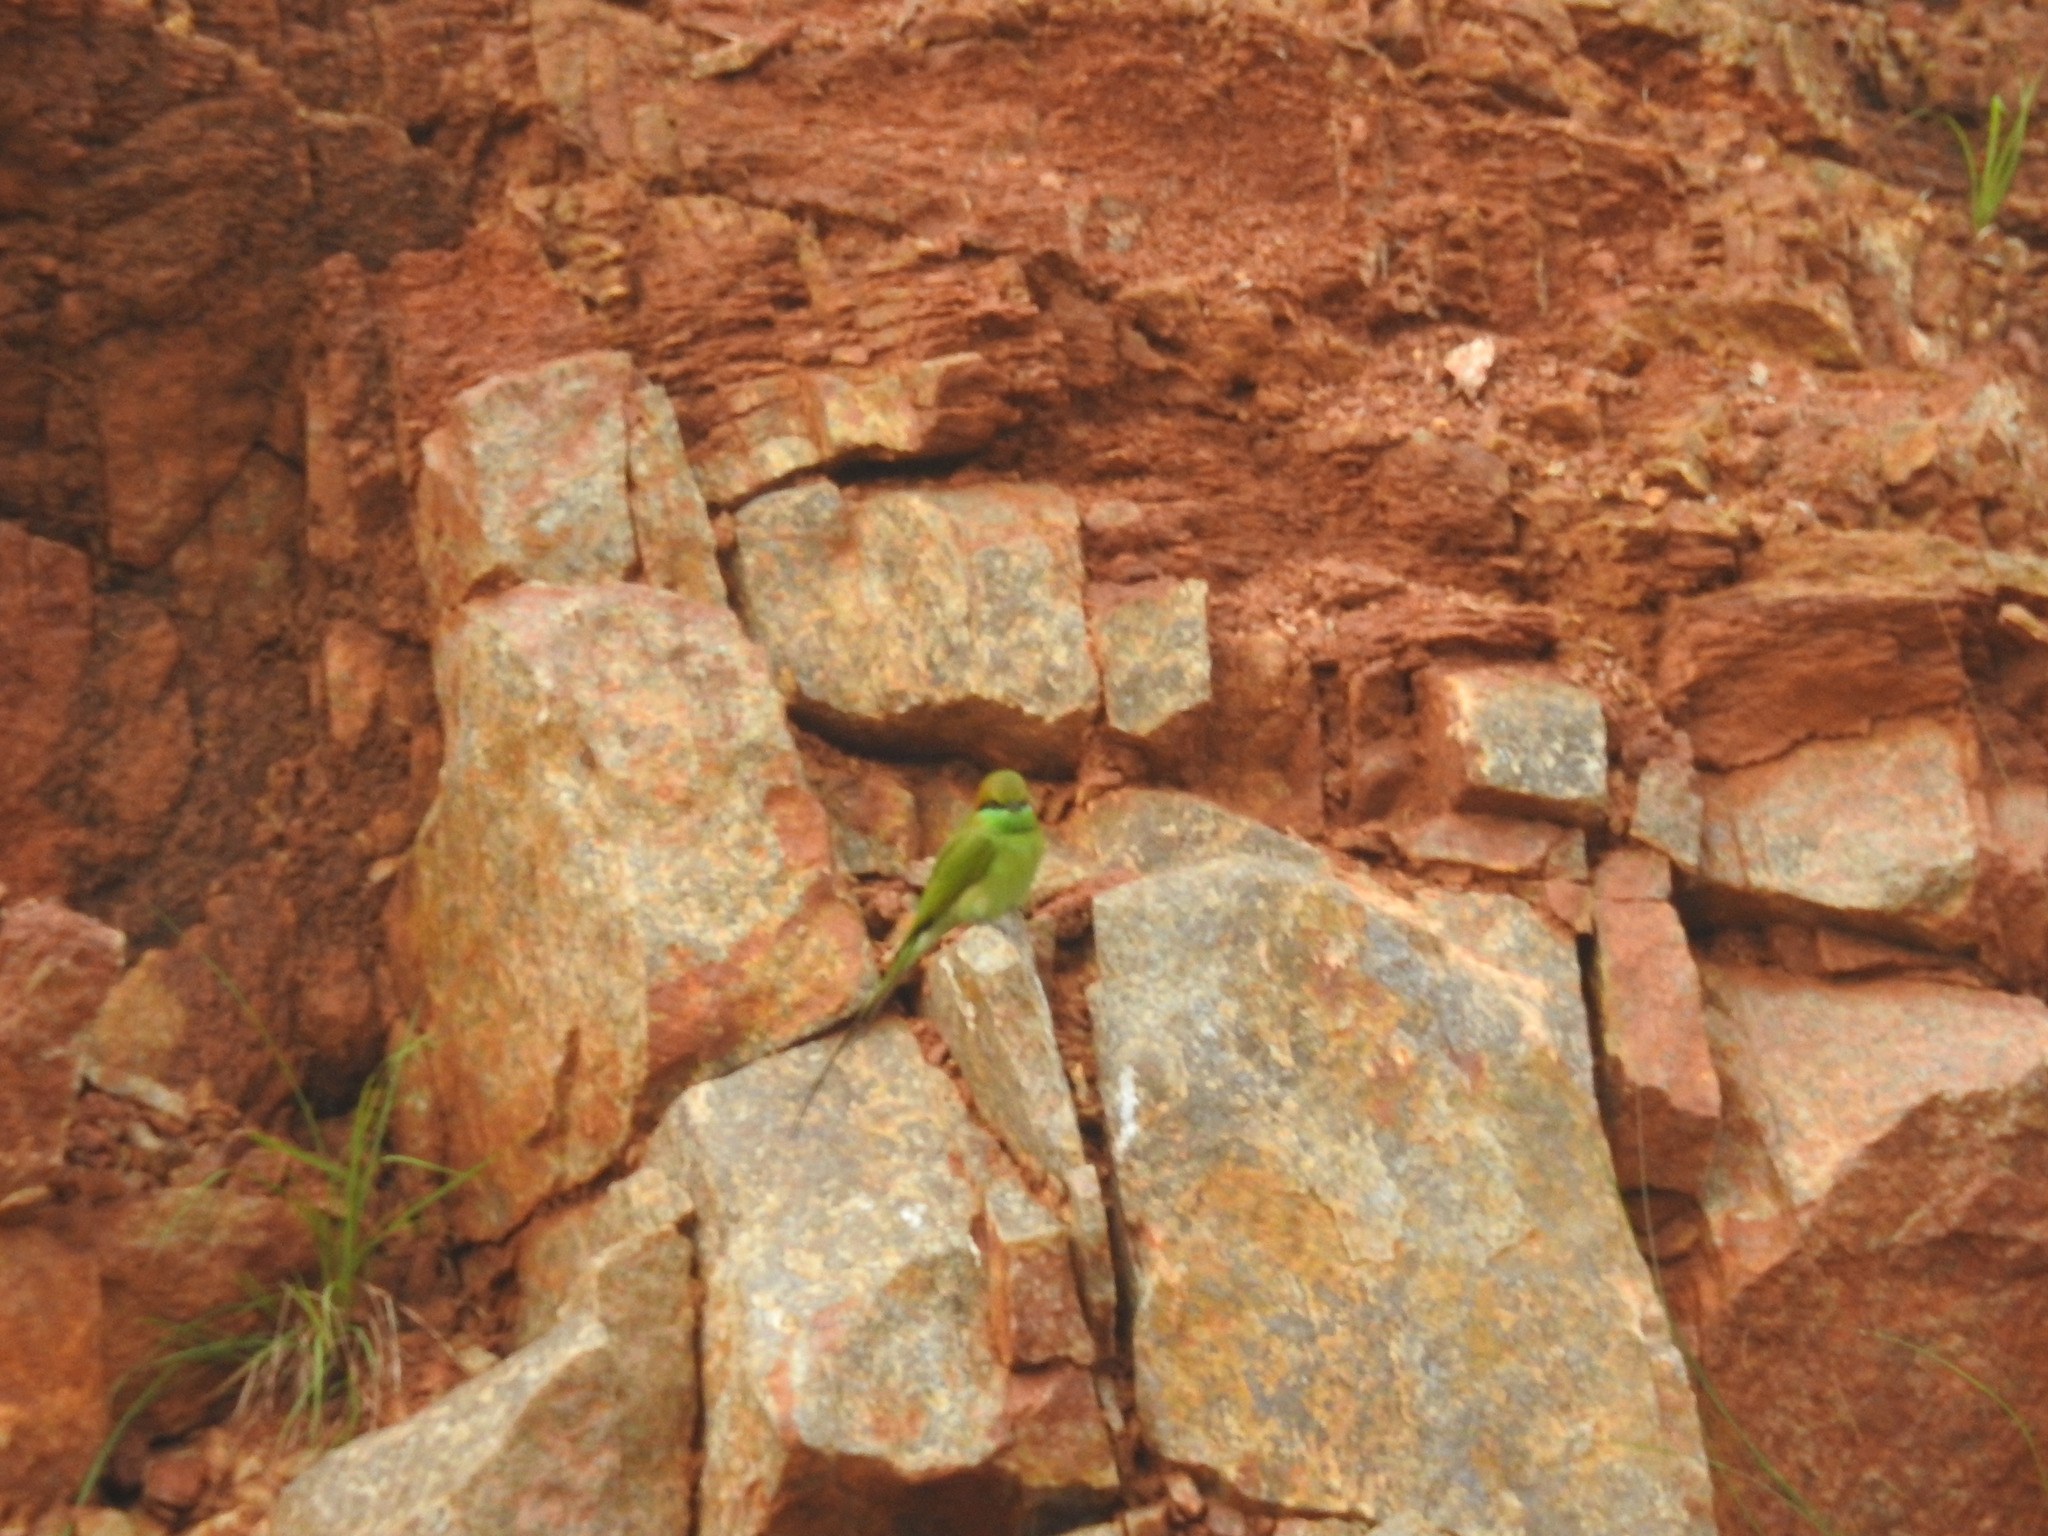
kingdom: Animalia
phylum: Chordata
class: Aves
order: Coraciiformes
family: Meropidae
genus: Merops
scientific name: Merops orientalis
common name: Green bee-eater
